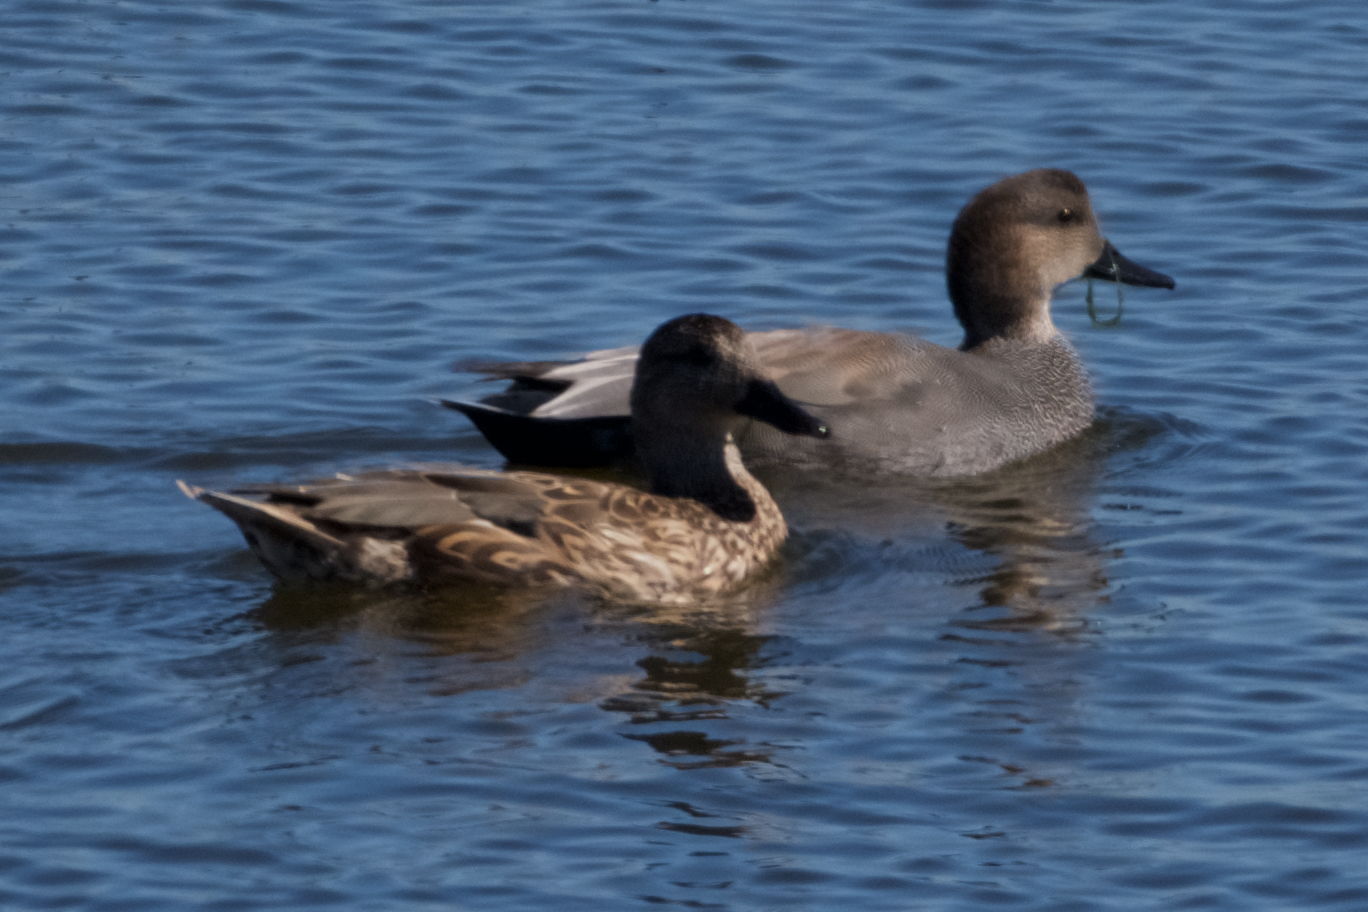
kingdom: Animalia
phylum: Chordata
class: Aves
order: Anseriformes
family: Anatidae
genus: Mareca
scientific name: Mareca strepera
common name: Gadwall
